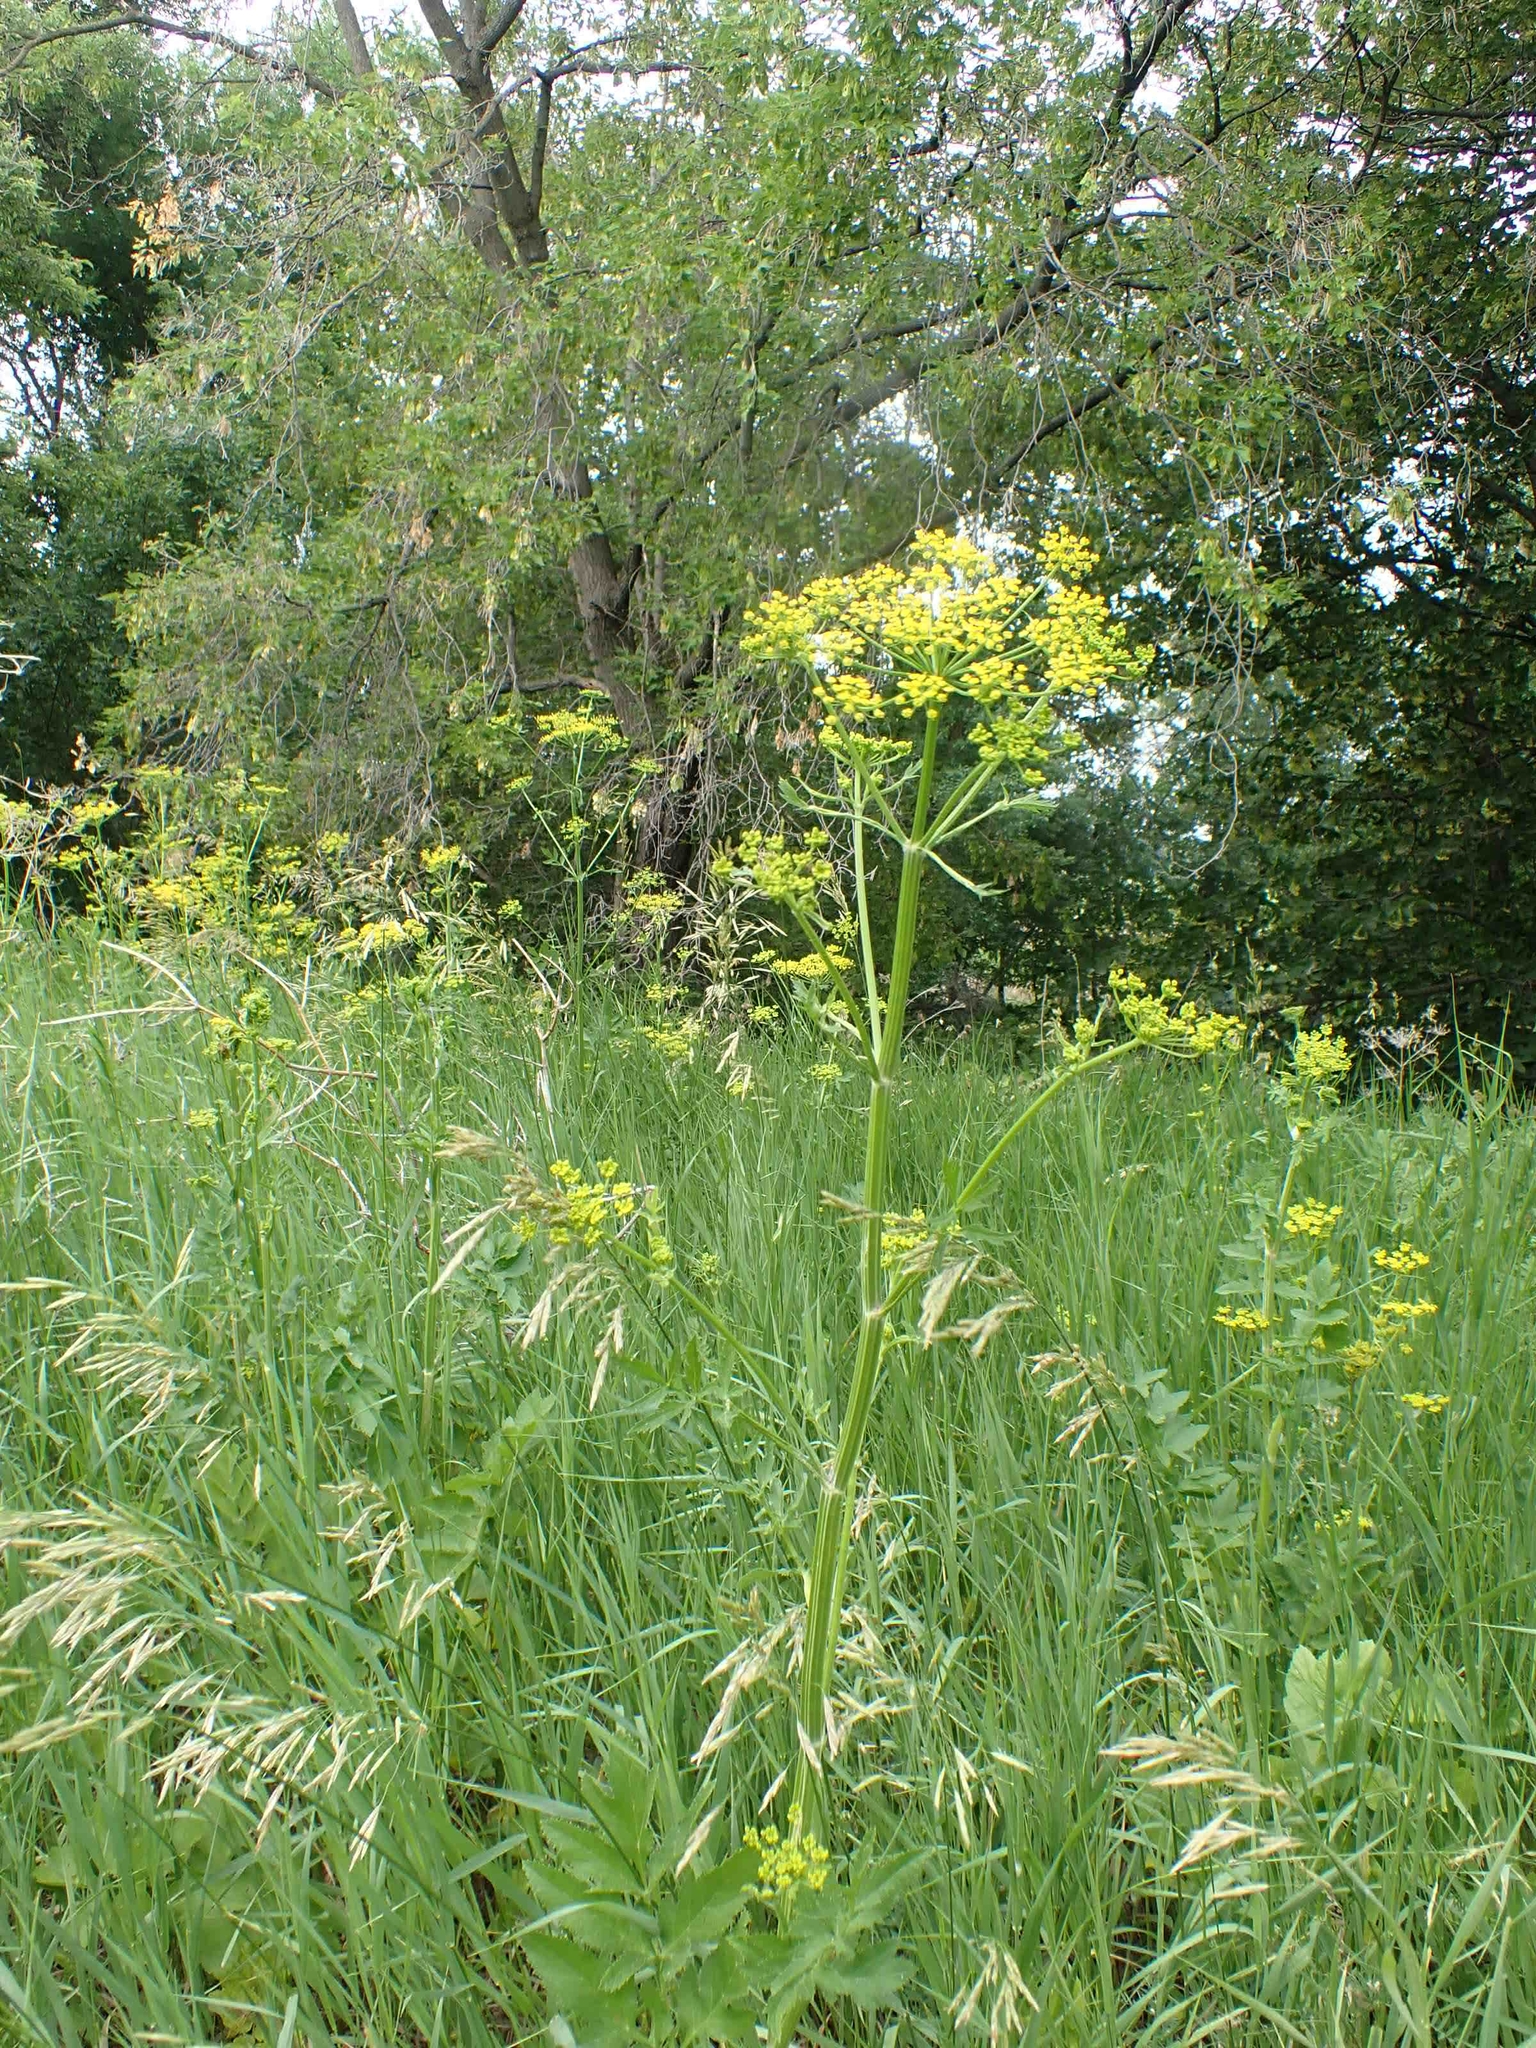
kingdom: Plantae
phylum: Tracheophyta
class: Magnoliopsida
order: Apiales
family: Apiaceae
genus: Pastinaca
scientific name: Pastinaca sativa
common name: Wild parsnip
